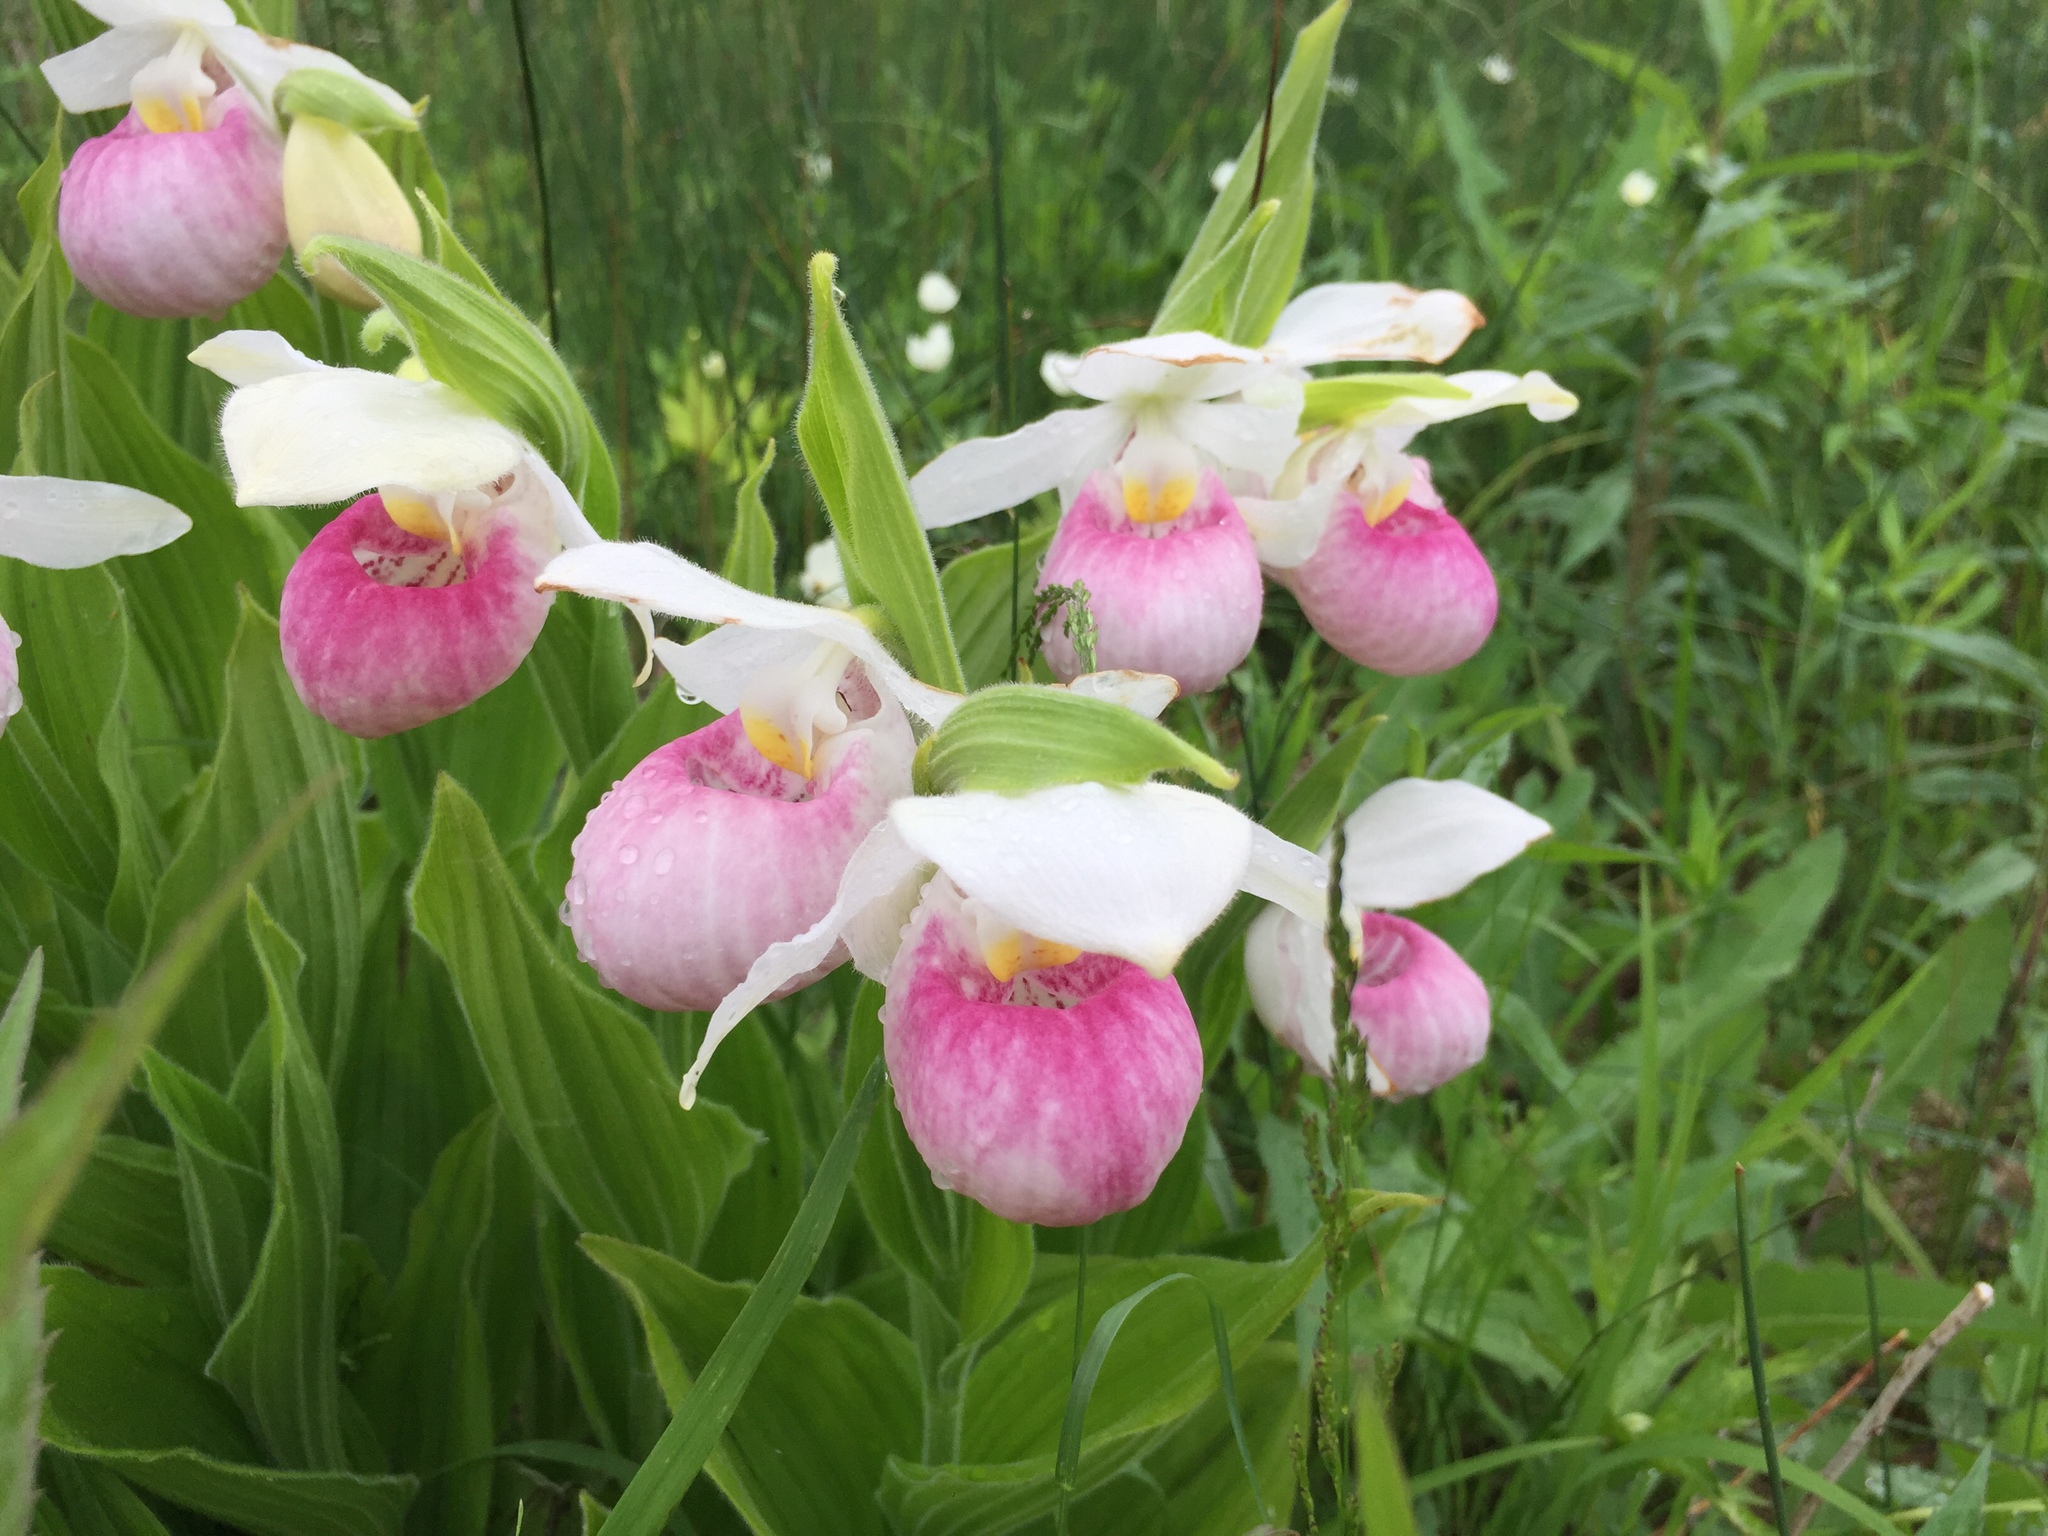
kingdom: Plantae
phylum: Tracheophyta
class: Liliopsida
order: Asparagales
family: Orchidaceae
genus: Cypripedium
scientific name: Cypripedium reginae
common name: Queen lady's-slipper
